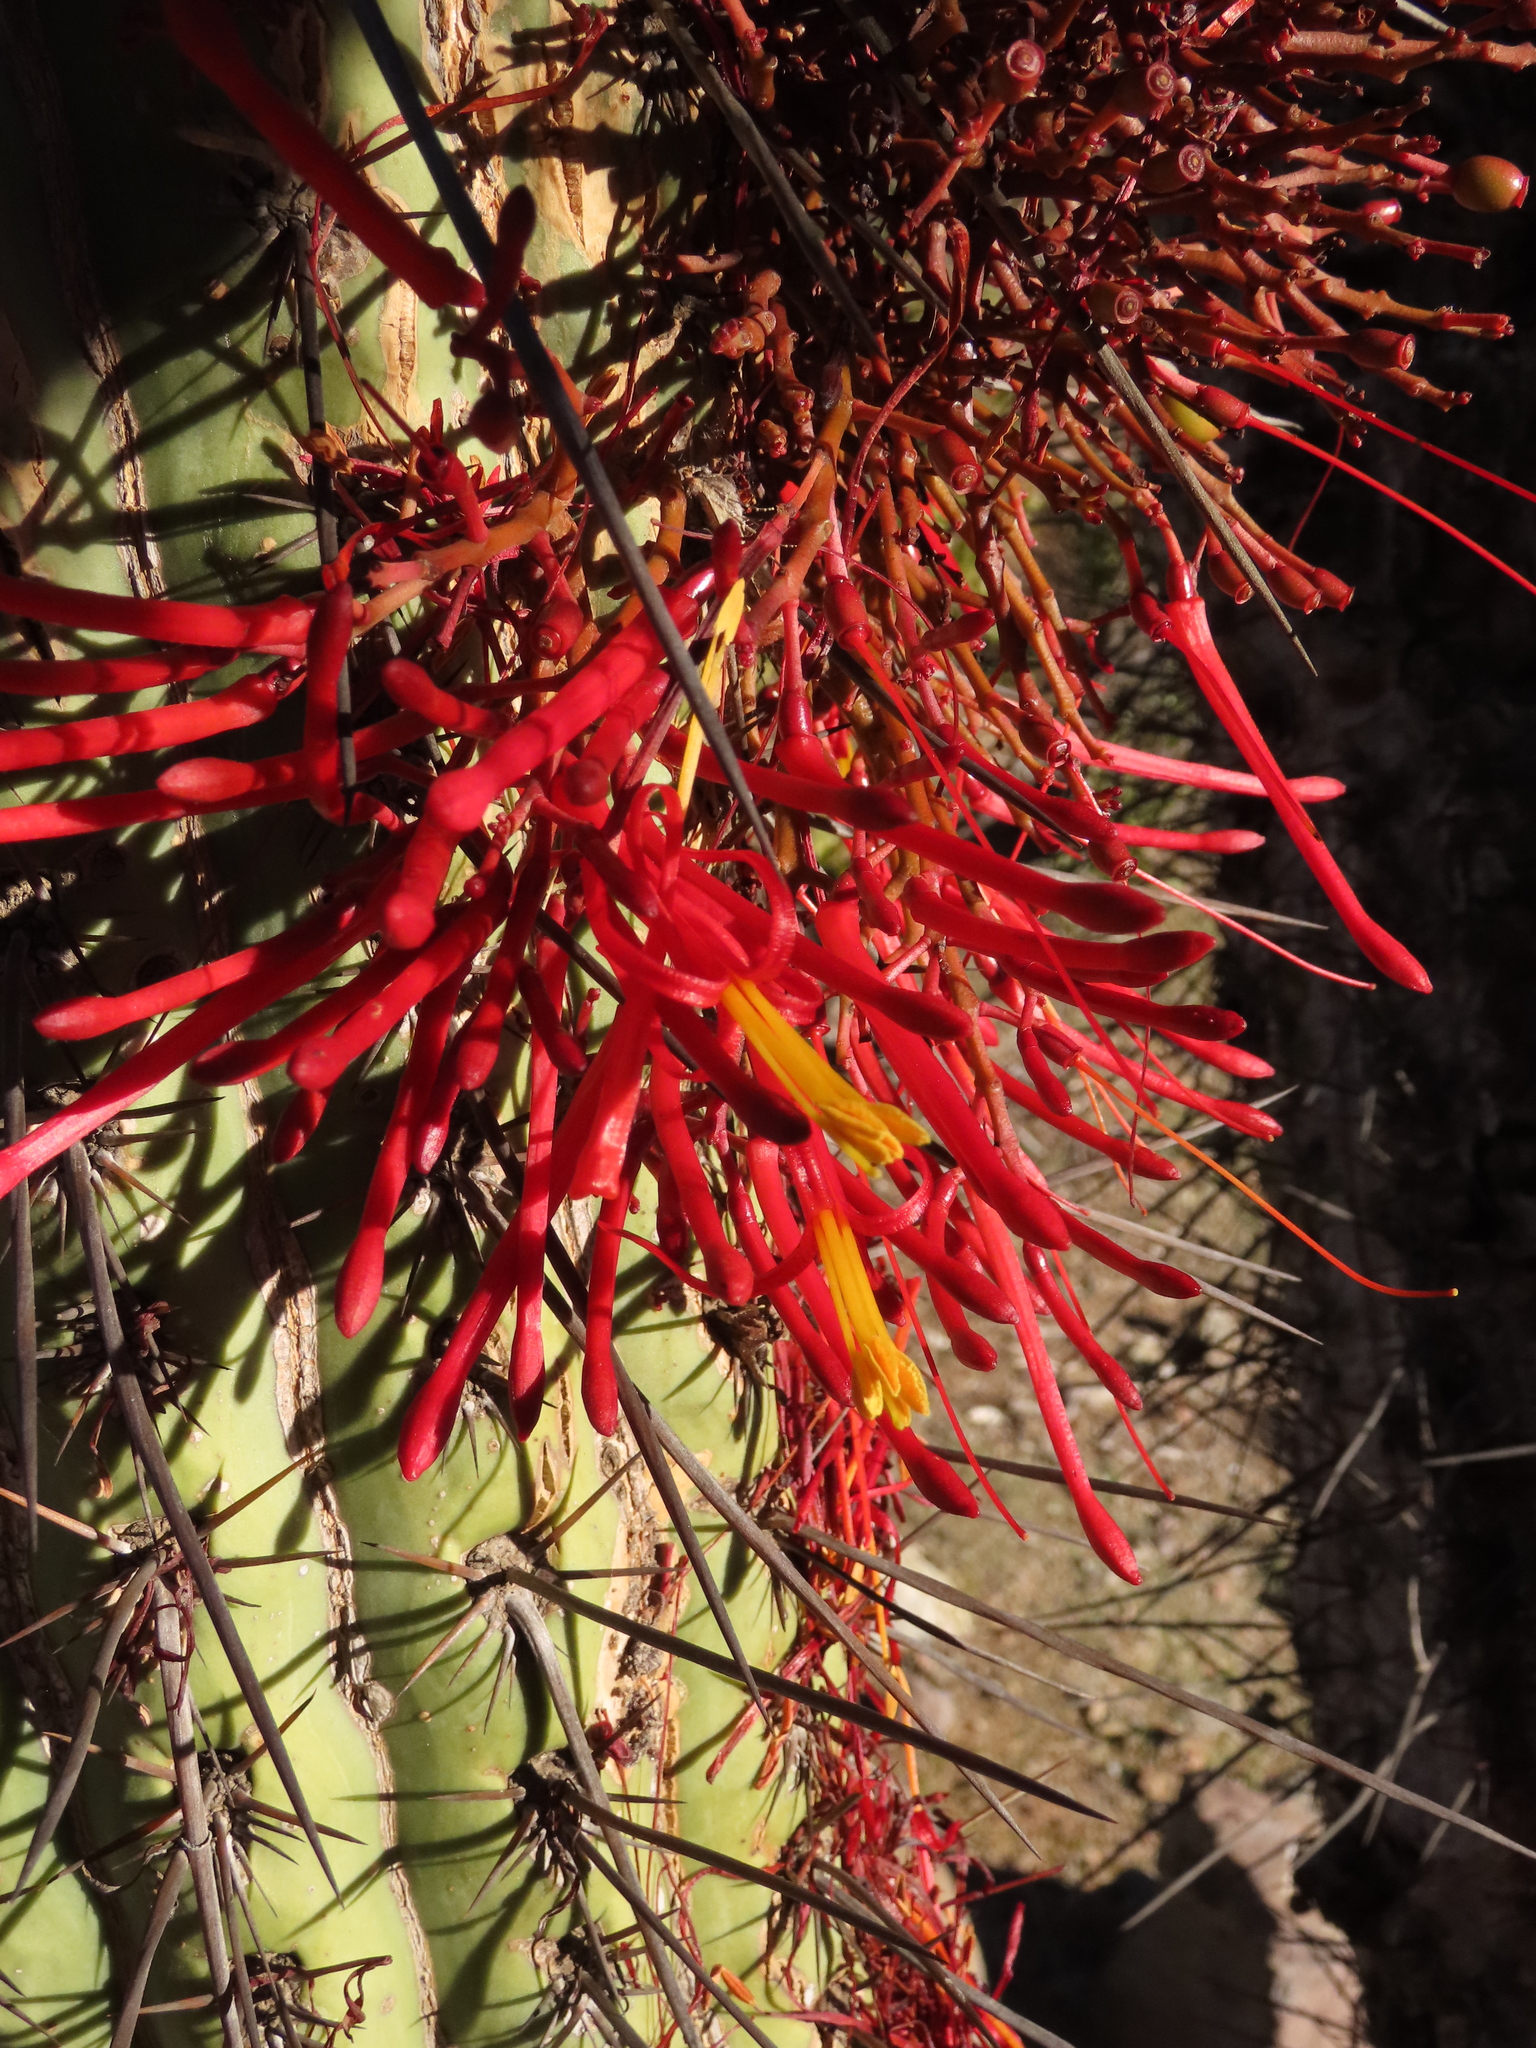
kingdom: Plantae
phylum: Tracheophyta
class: Magnoliopsida
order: Santalales
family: Loranthaceae
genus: Tristerix
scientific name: Tristerix aphyllus
